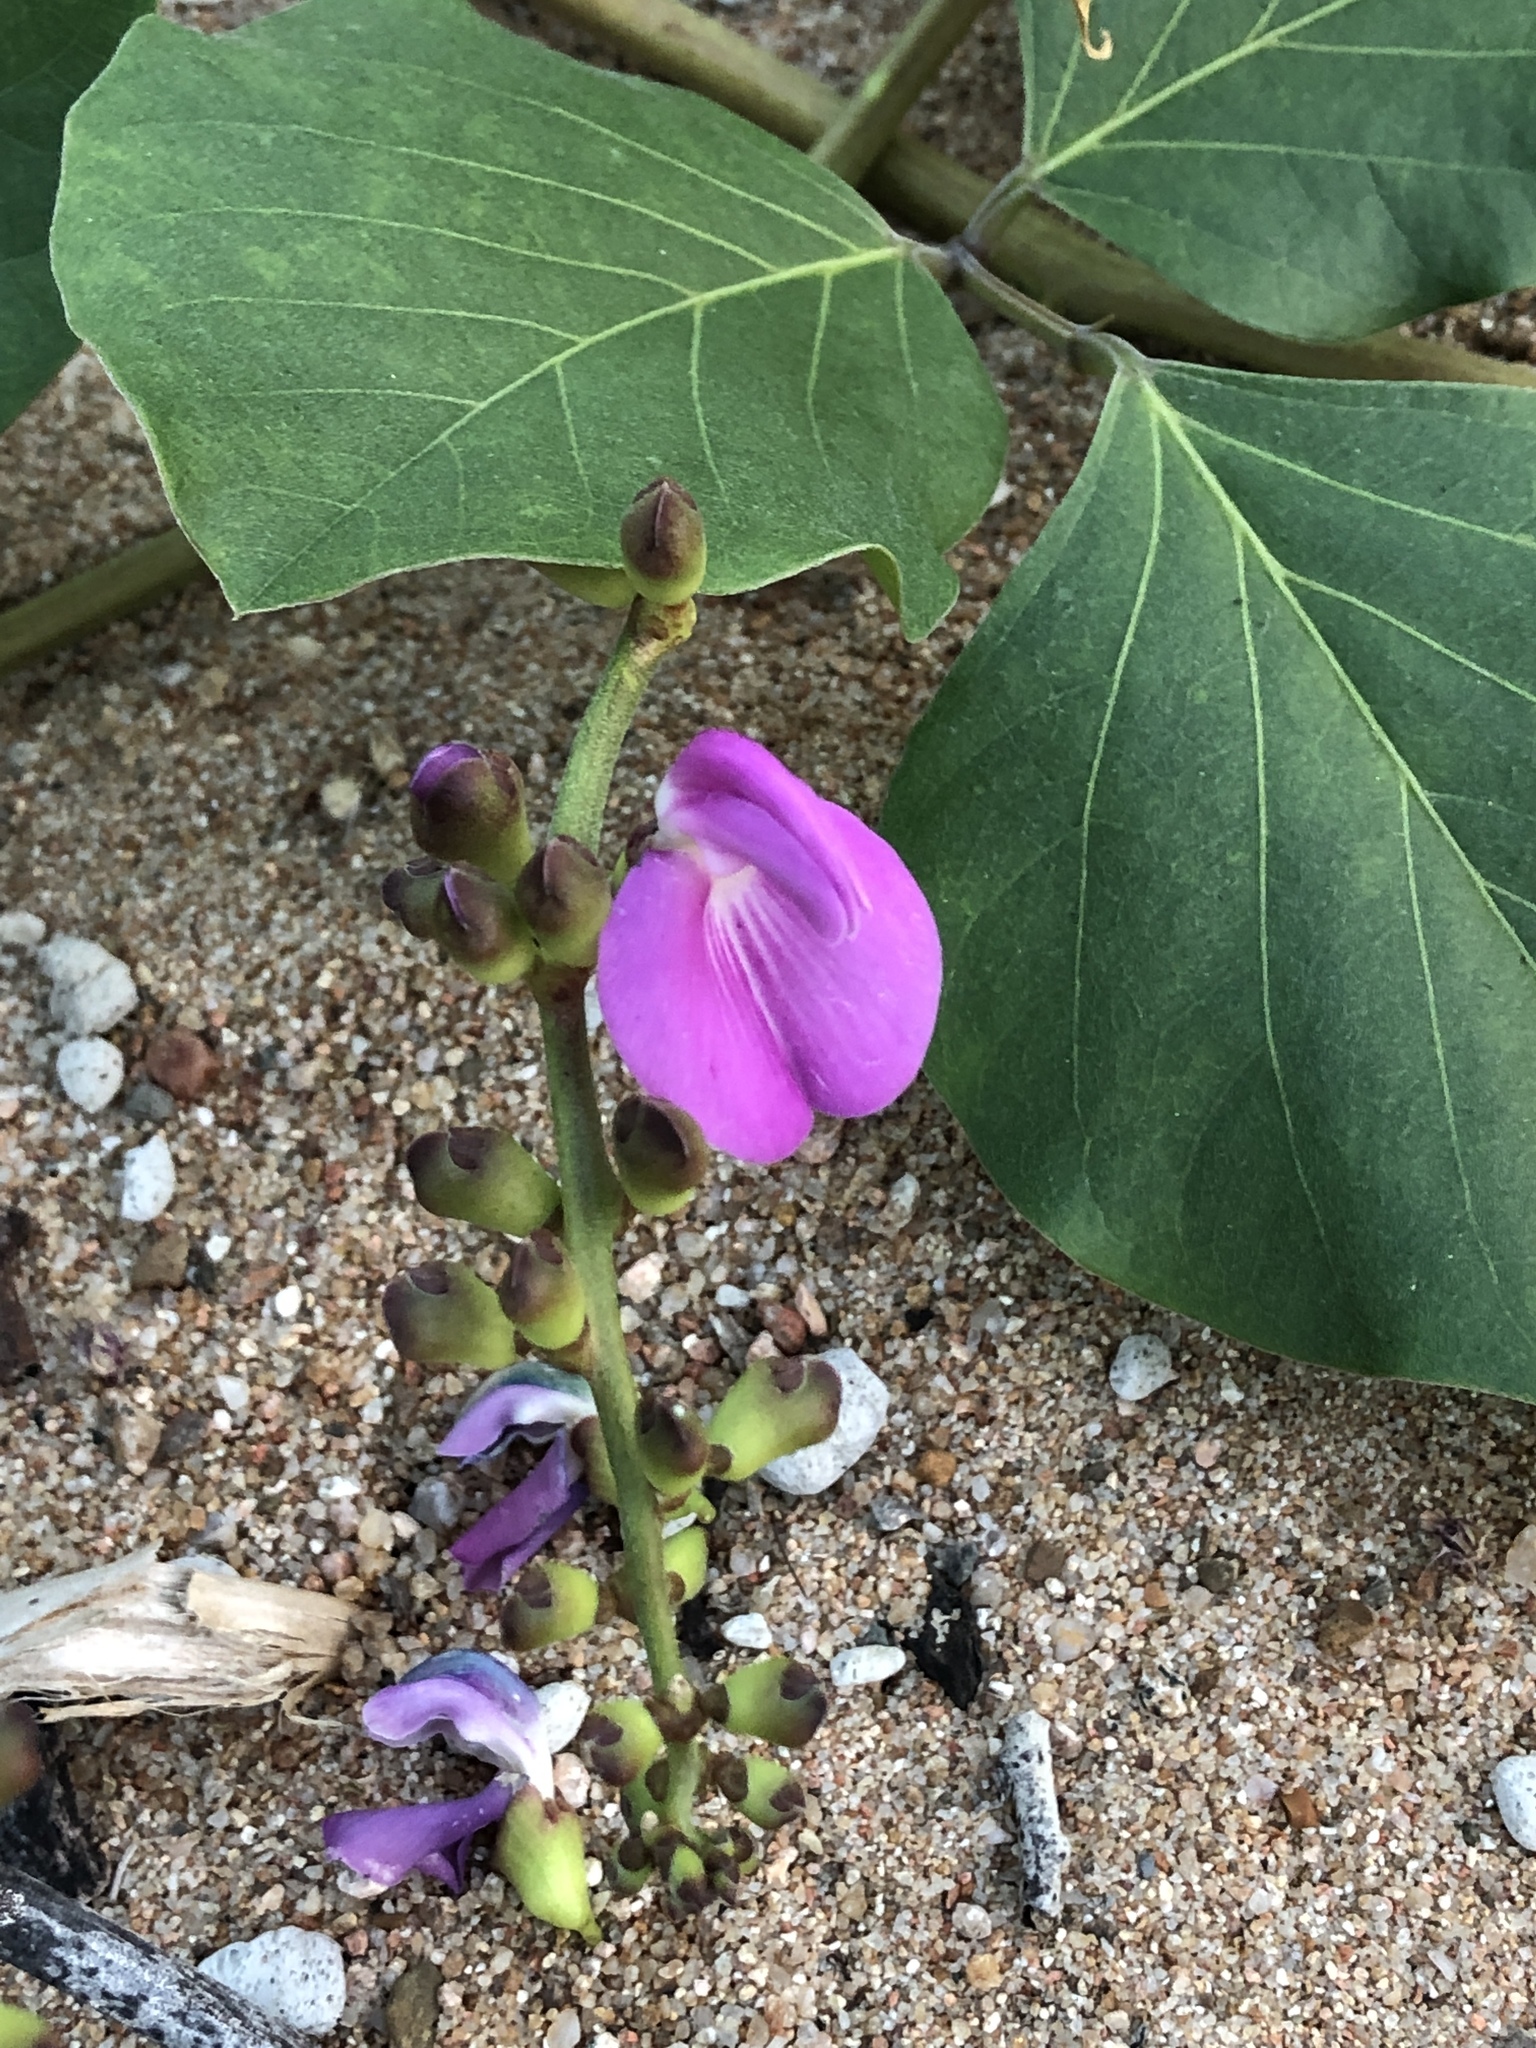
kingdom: Plantae
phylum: Tracheophyta
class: Magnoliopsida
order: Fabales
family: Fabaceae
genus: Canavalia
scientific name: Canavalia rosea
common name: Beach-bean
